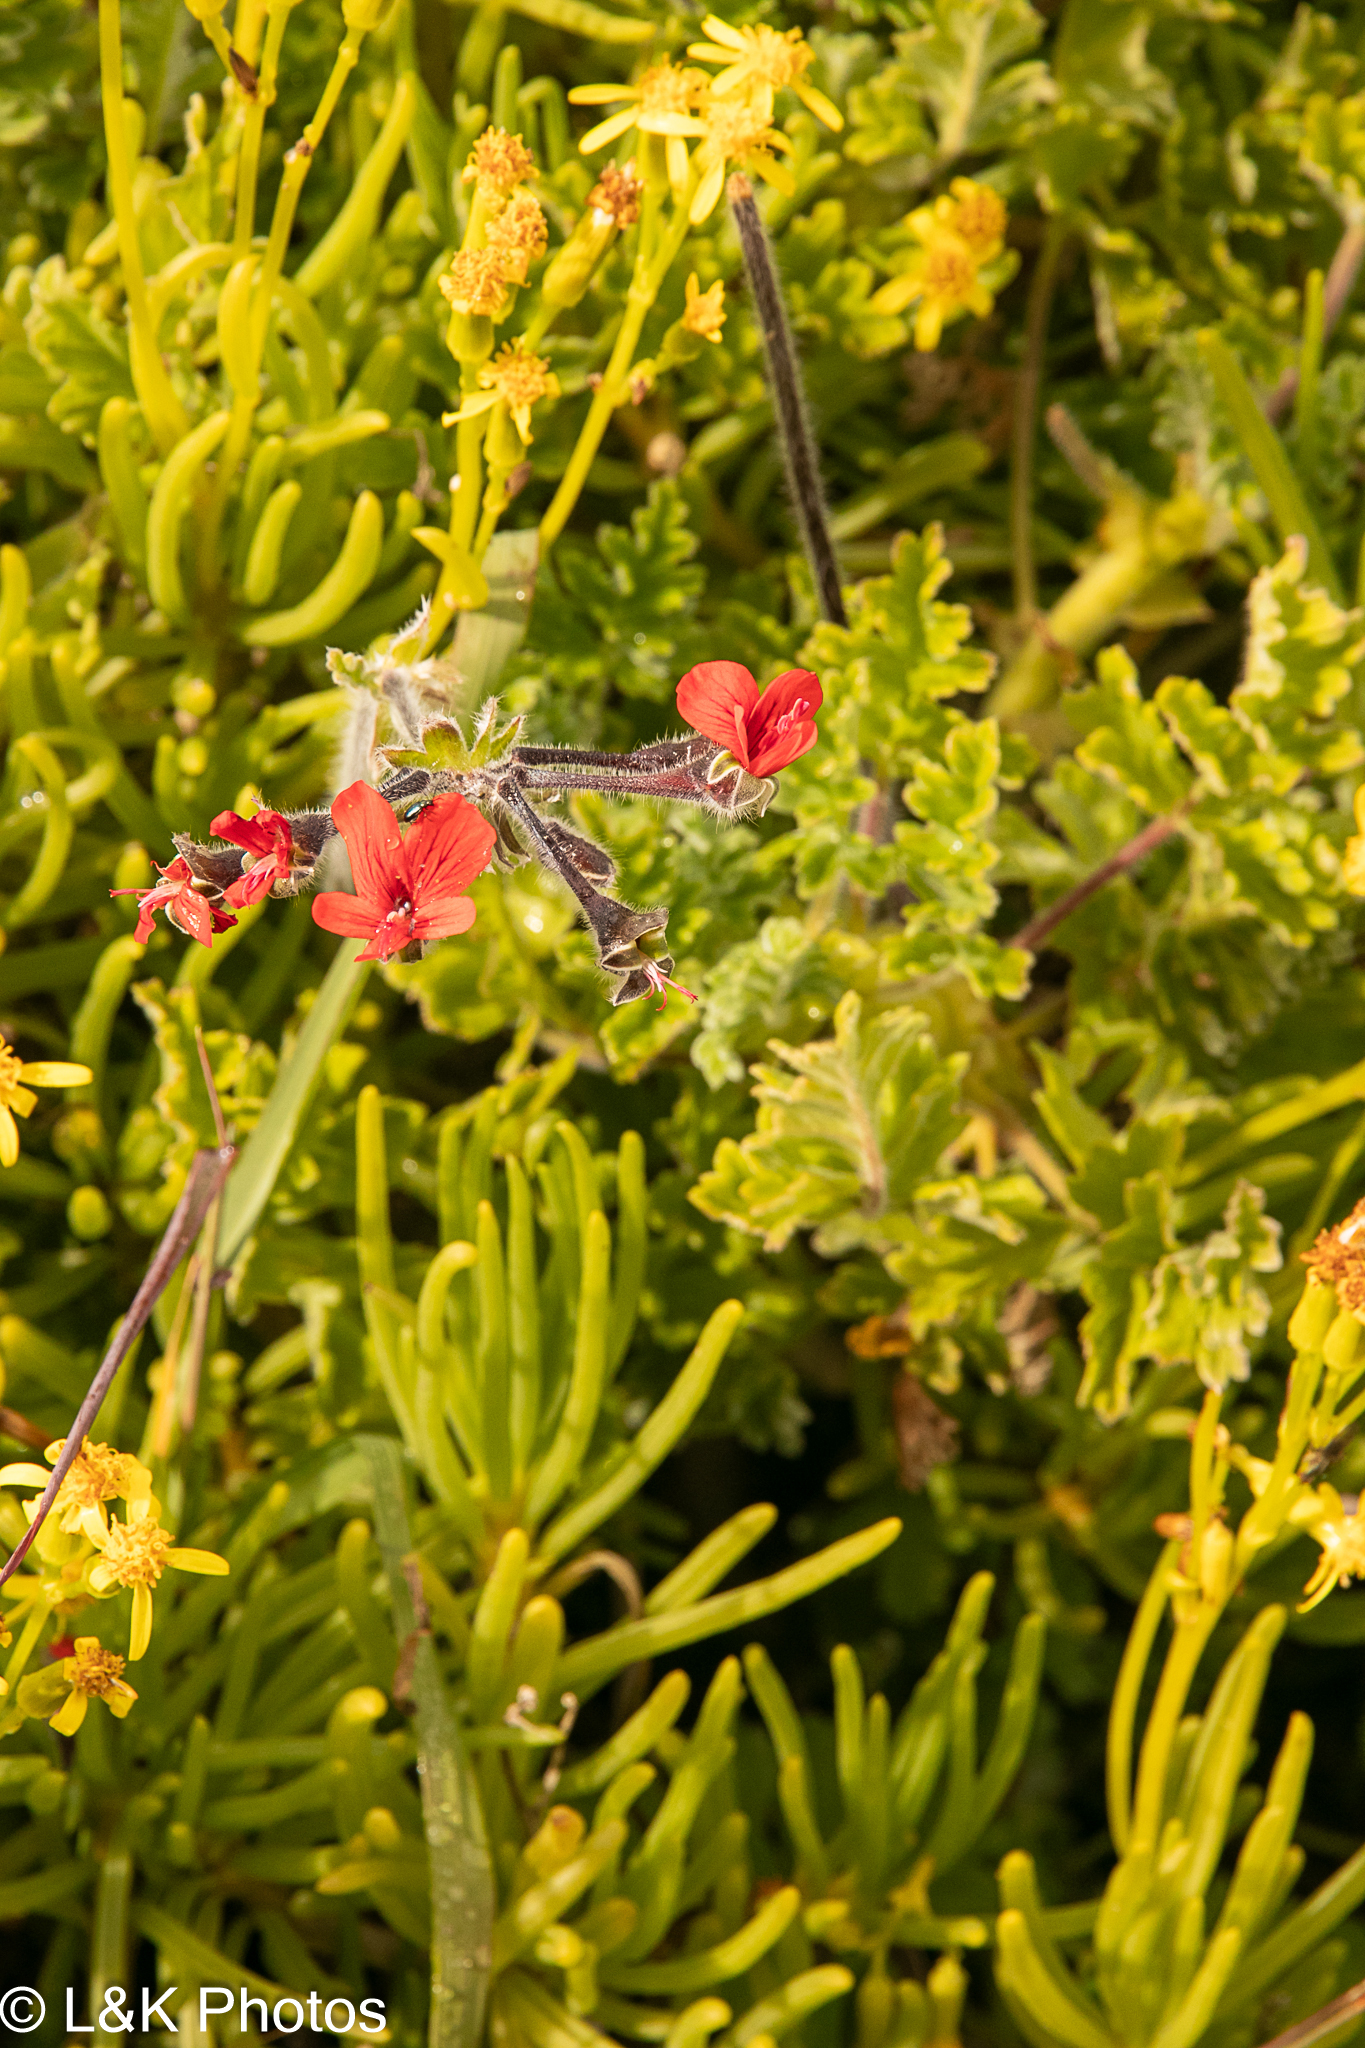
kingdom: Plantae
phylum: Tracheophyta
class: Magnoliopsida
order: Geraniales
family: Geraniaceae
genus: Pelargonium
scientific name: Pelargonium fulgidum
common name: Celandine-leaf pelargonium
